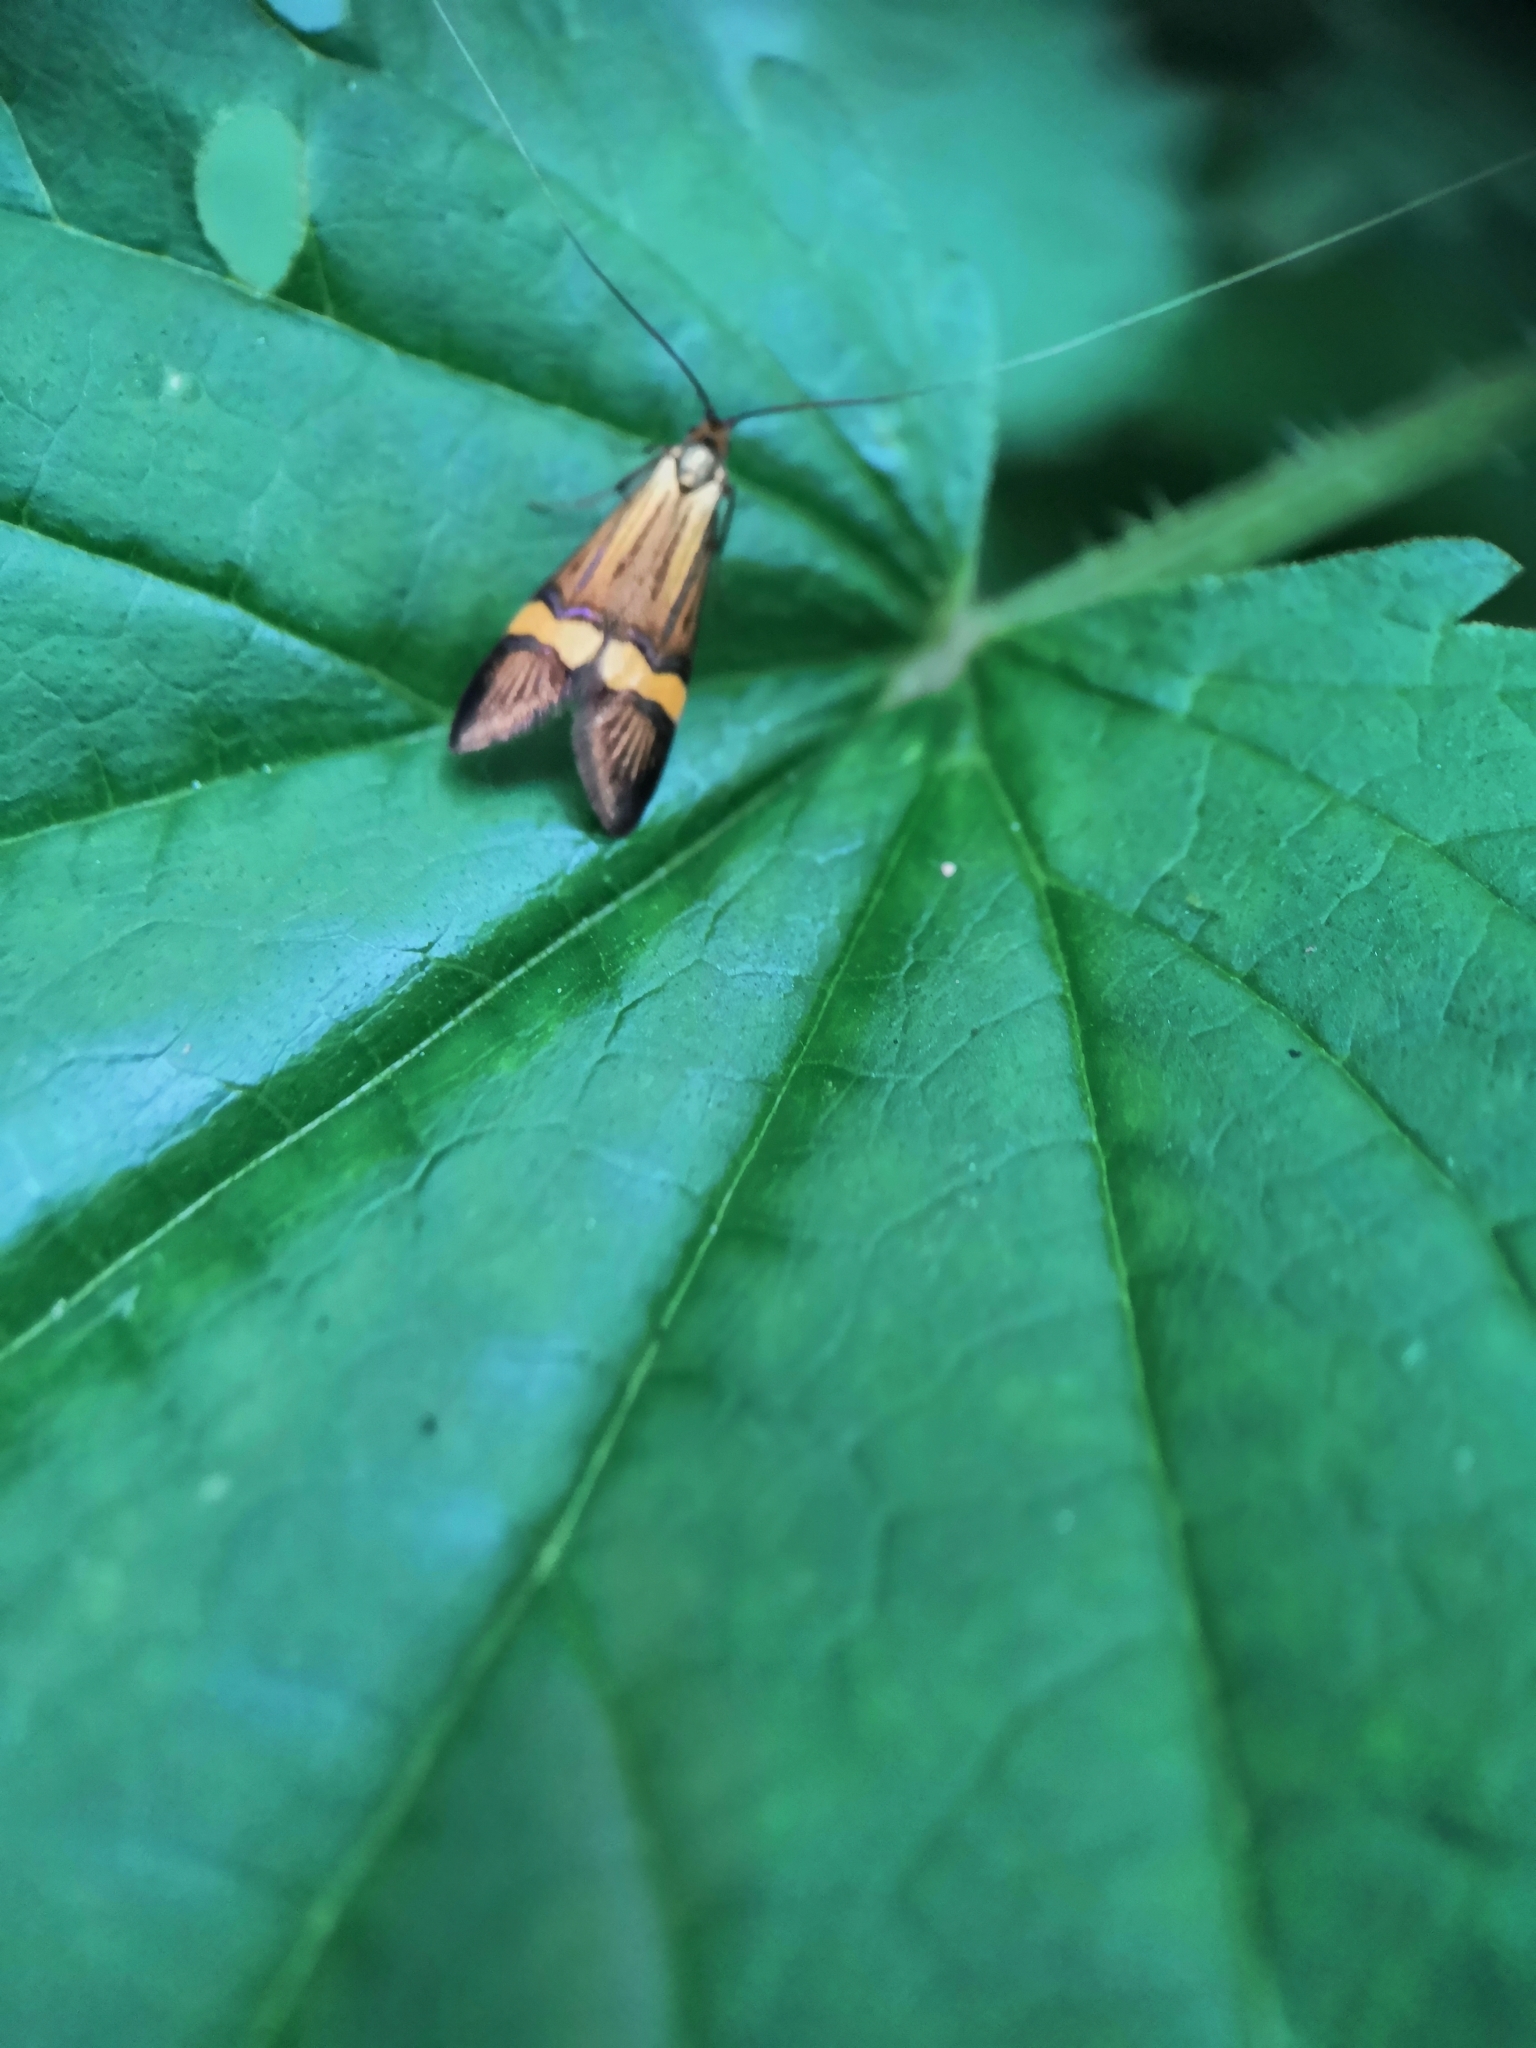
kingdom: Animalia
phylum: Arthropoda
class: Insecta
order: Lepidoptera
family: Adelidae
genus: Nemophora
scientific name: Nemophora
